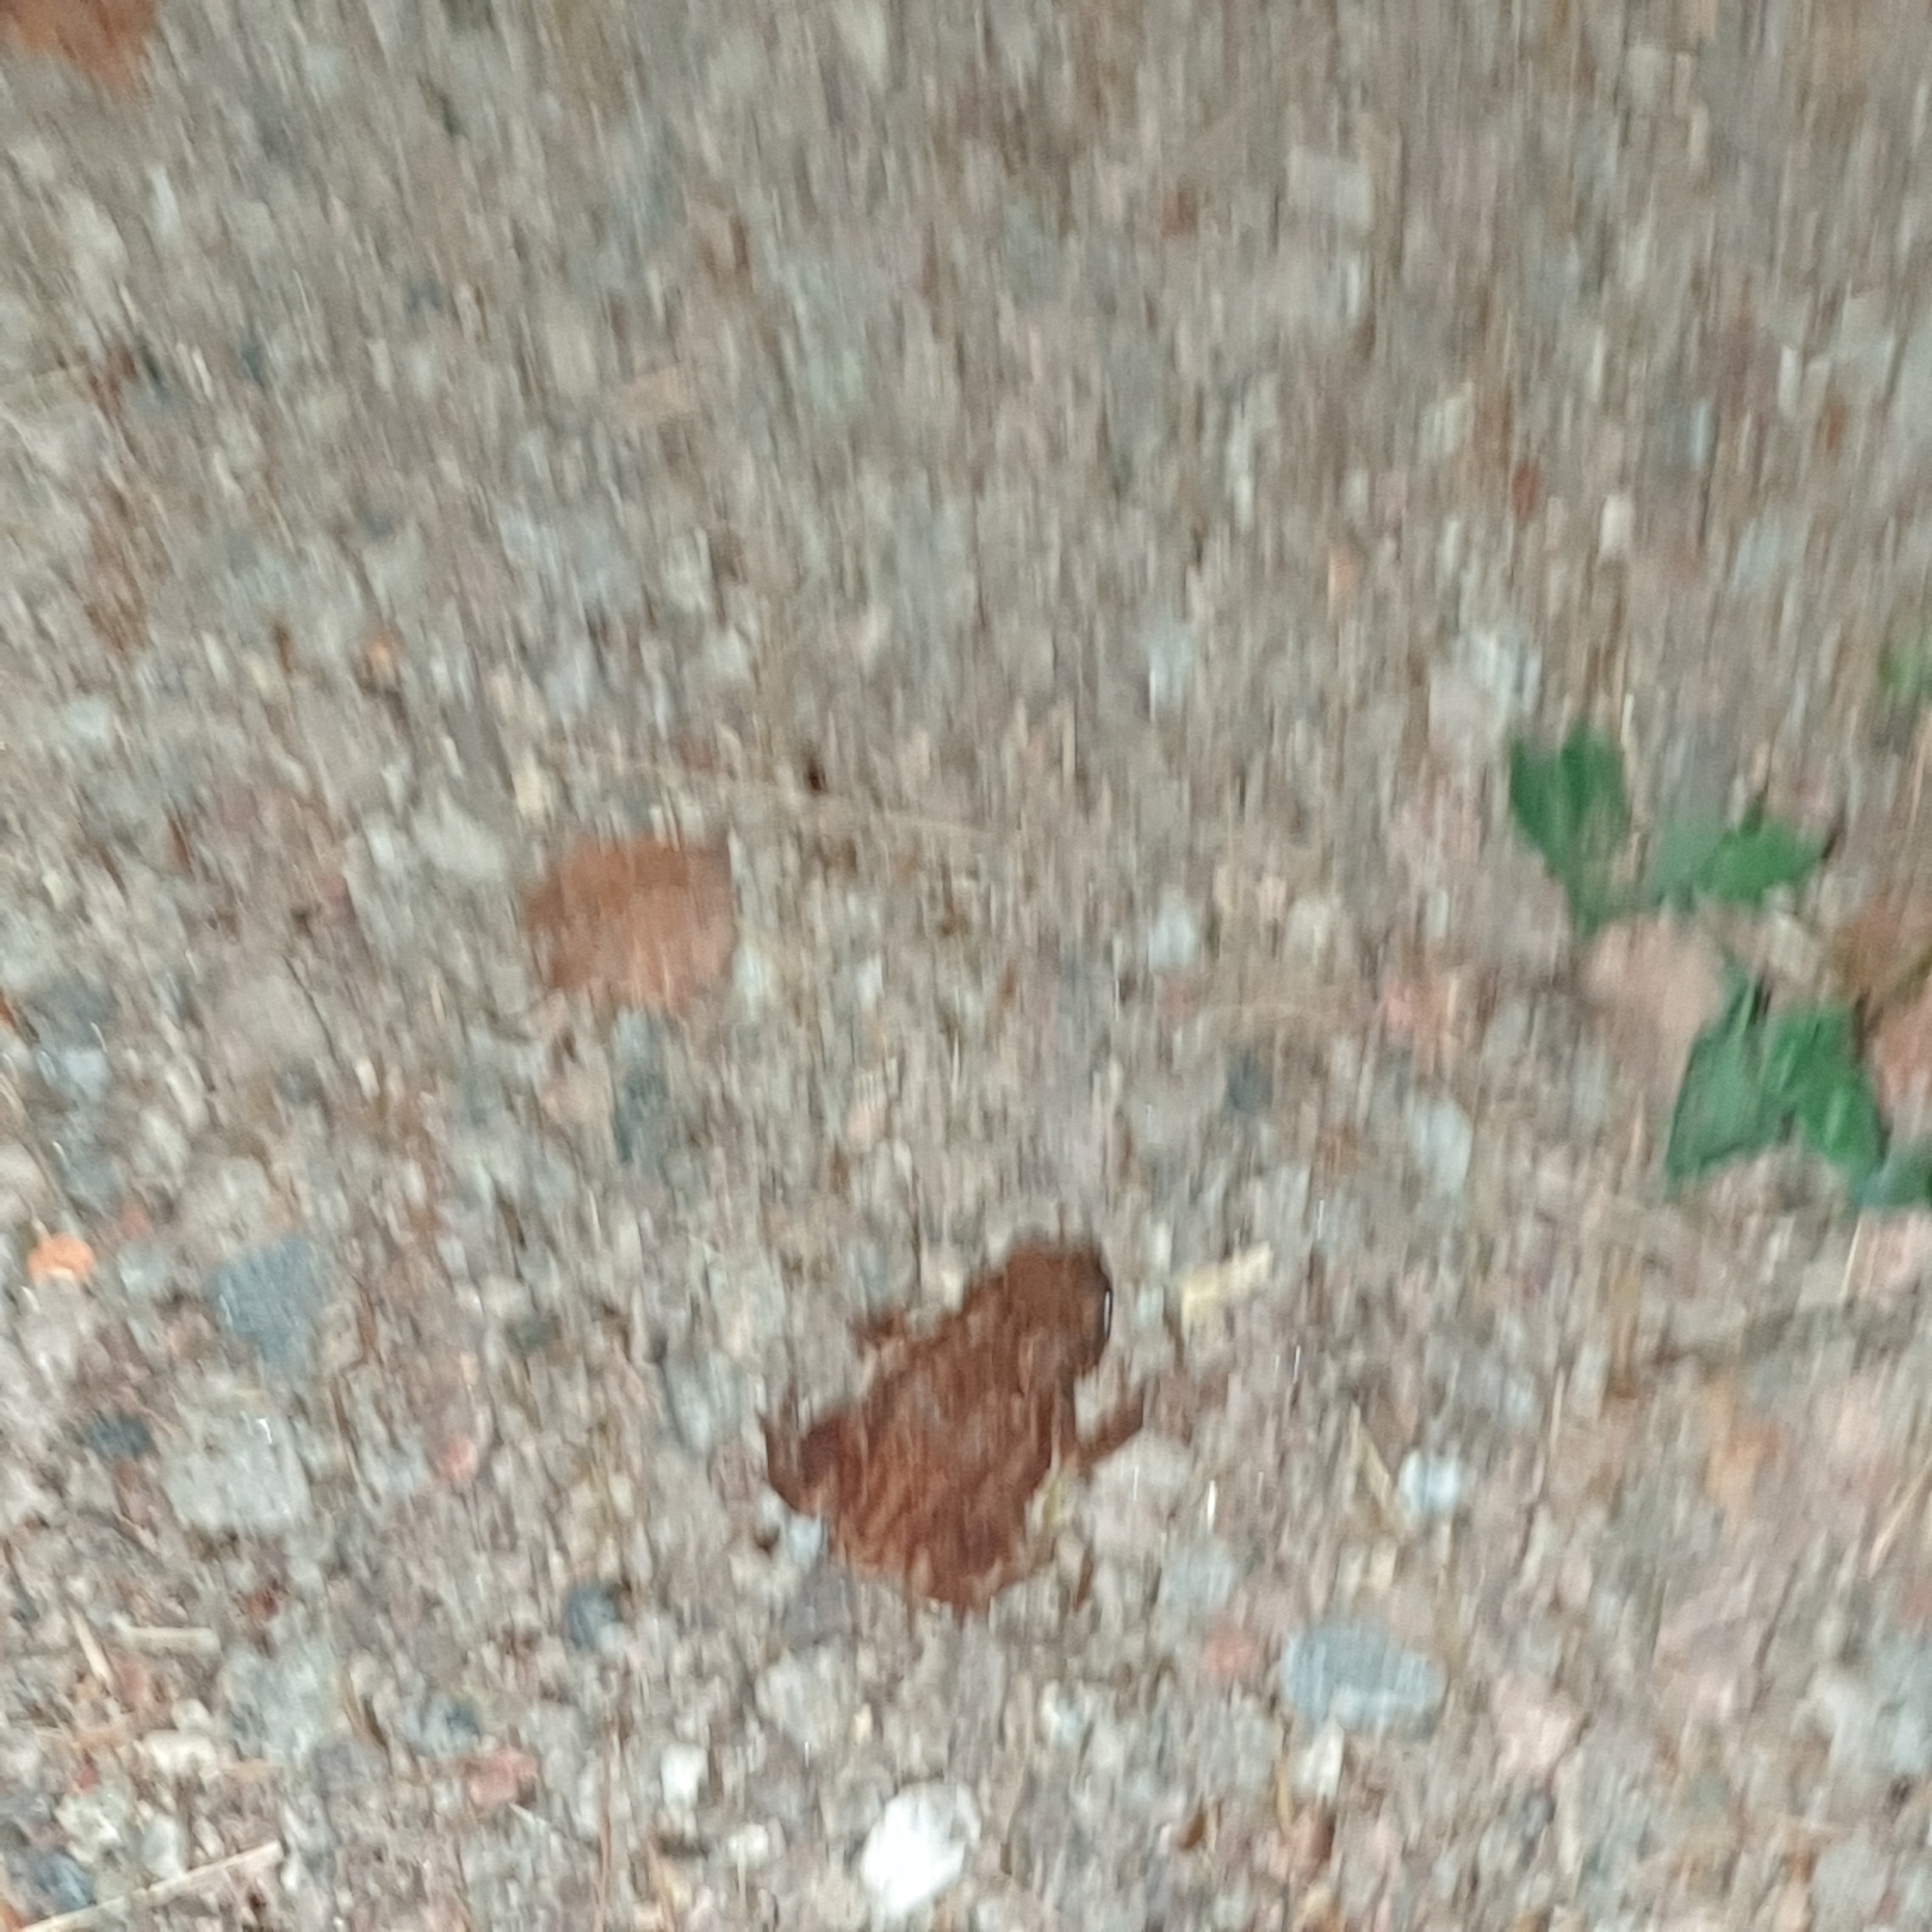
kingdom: Animalia
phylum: Chordata
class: Amphibia
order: Anura
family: Bufonidae
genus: Bufo
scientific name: Bufo bufo
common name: Common toad
